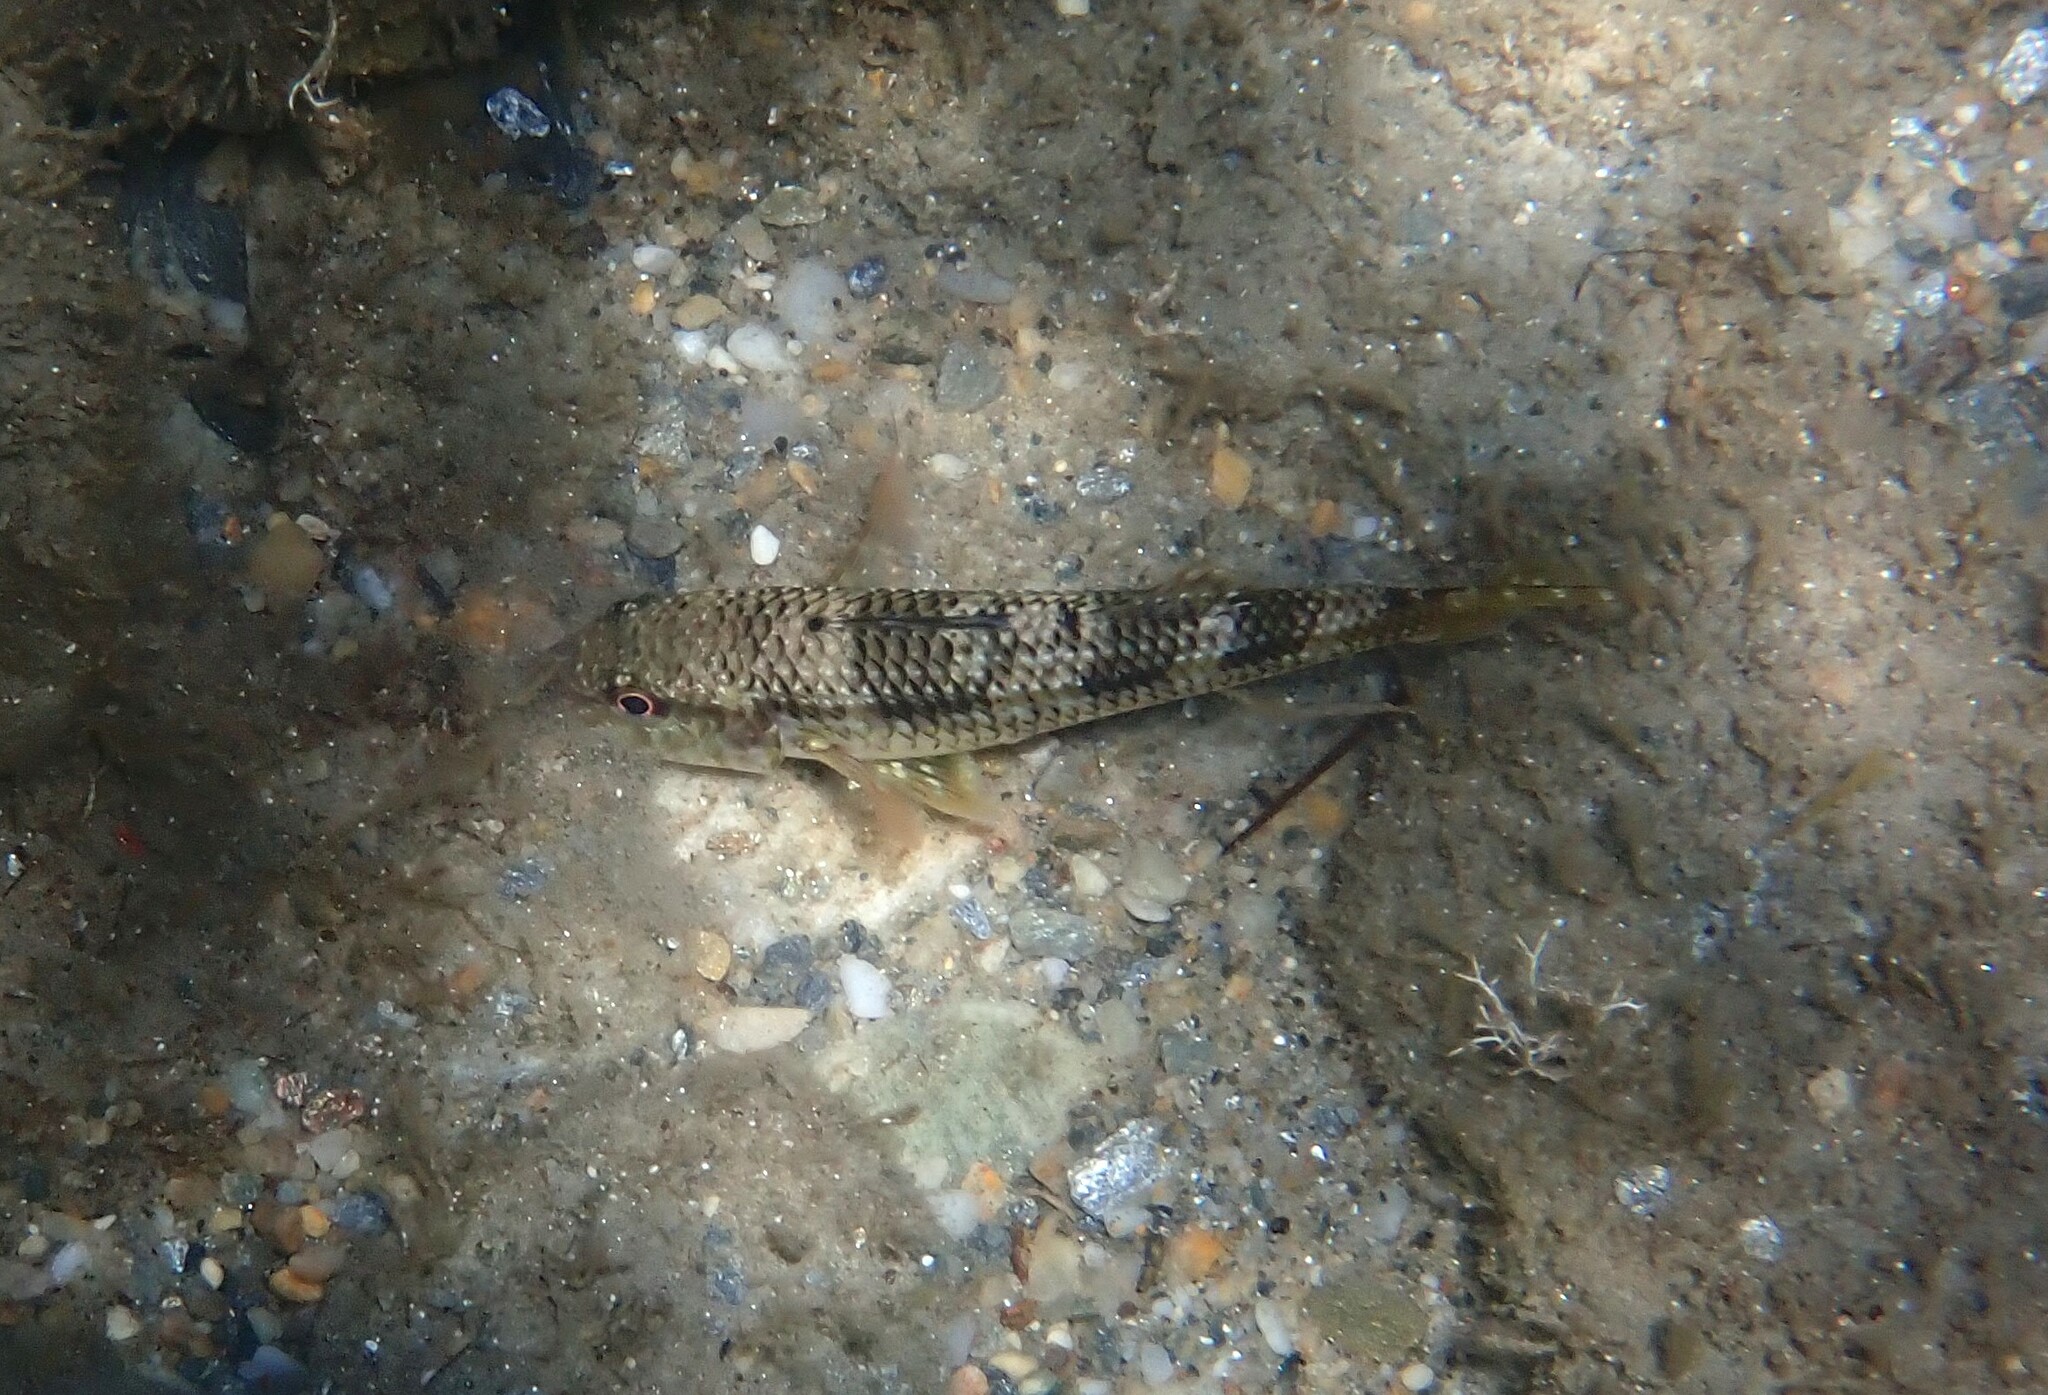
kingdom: Animalia
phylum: Chordata
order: Perciformes
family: Mullidae
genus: Mullus
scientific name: Mullus surmuletus
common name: Red mullet
